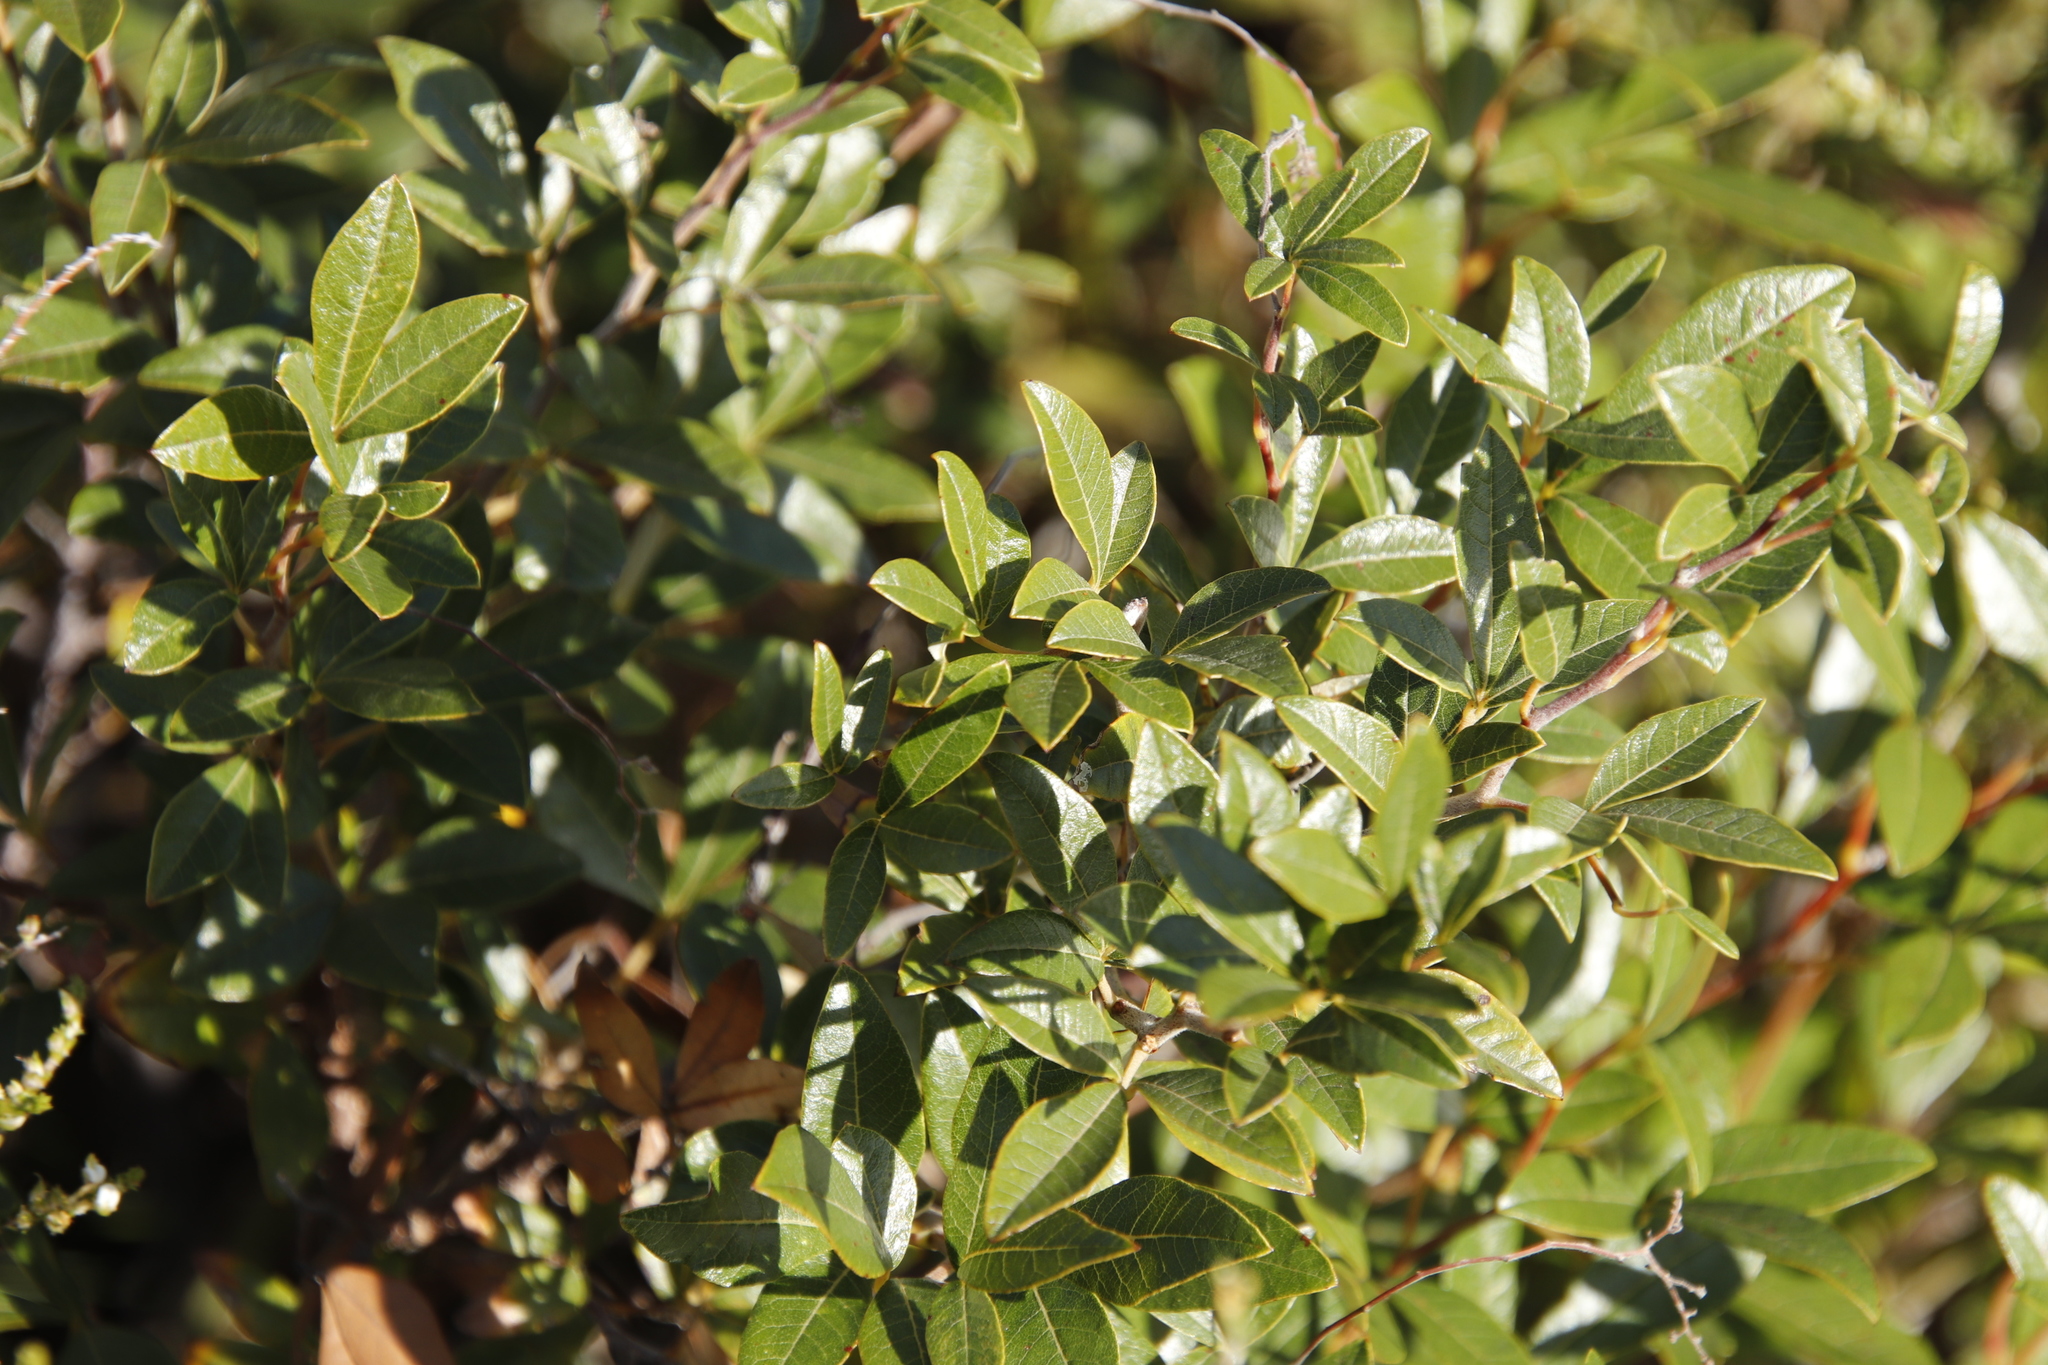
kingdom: Plantae
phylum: Tracheophyta
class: Magnoliopsida
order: Sapindales
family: Anacardiaceae
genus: Searsia
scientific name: Searsia tomentosa
